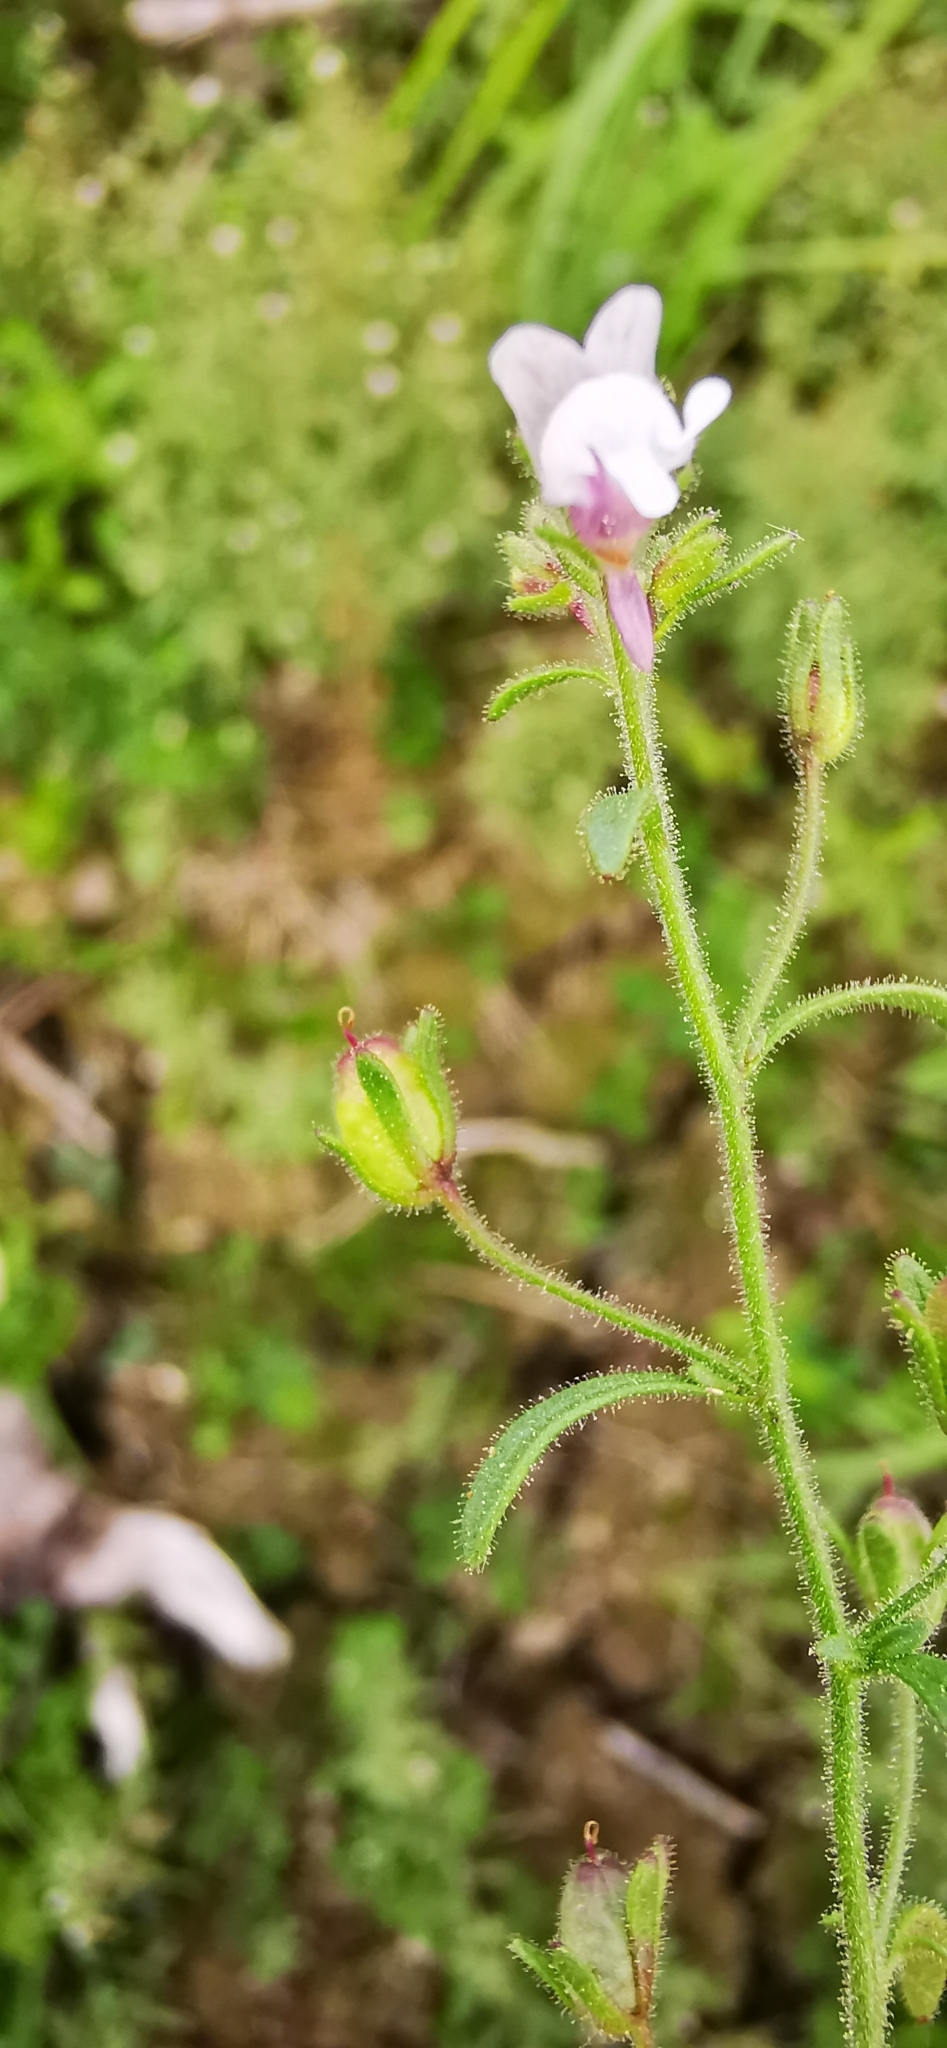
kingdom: Plantae
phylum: Tracheophyta
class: Magnoliopsida
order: Lamiales
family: Plantaginaceae
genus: Chaenorhinum
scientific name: Chaenorhinum minus
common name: Dwarf snapdragon
